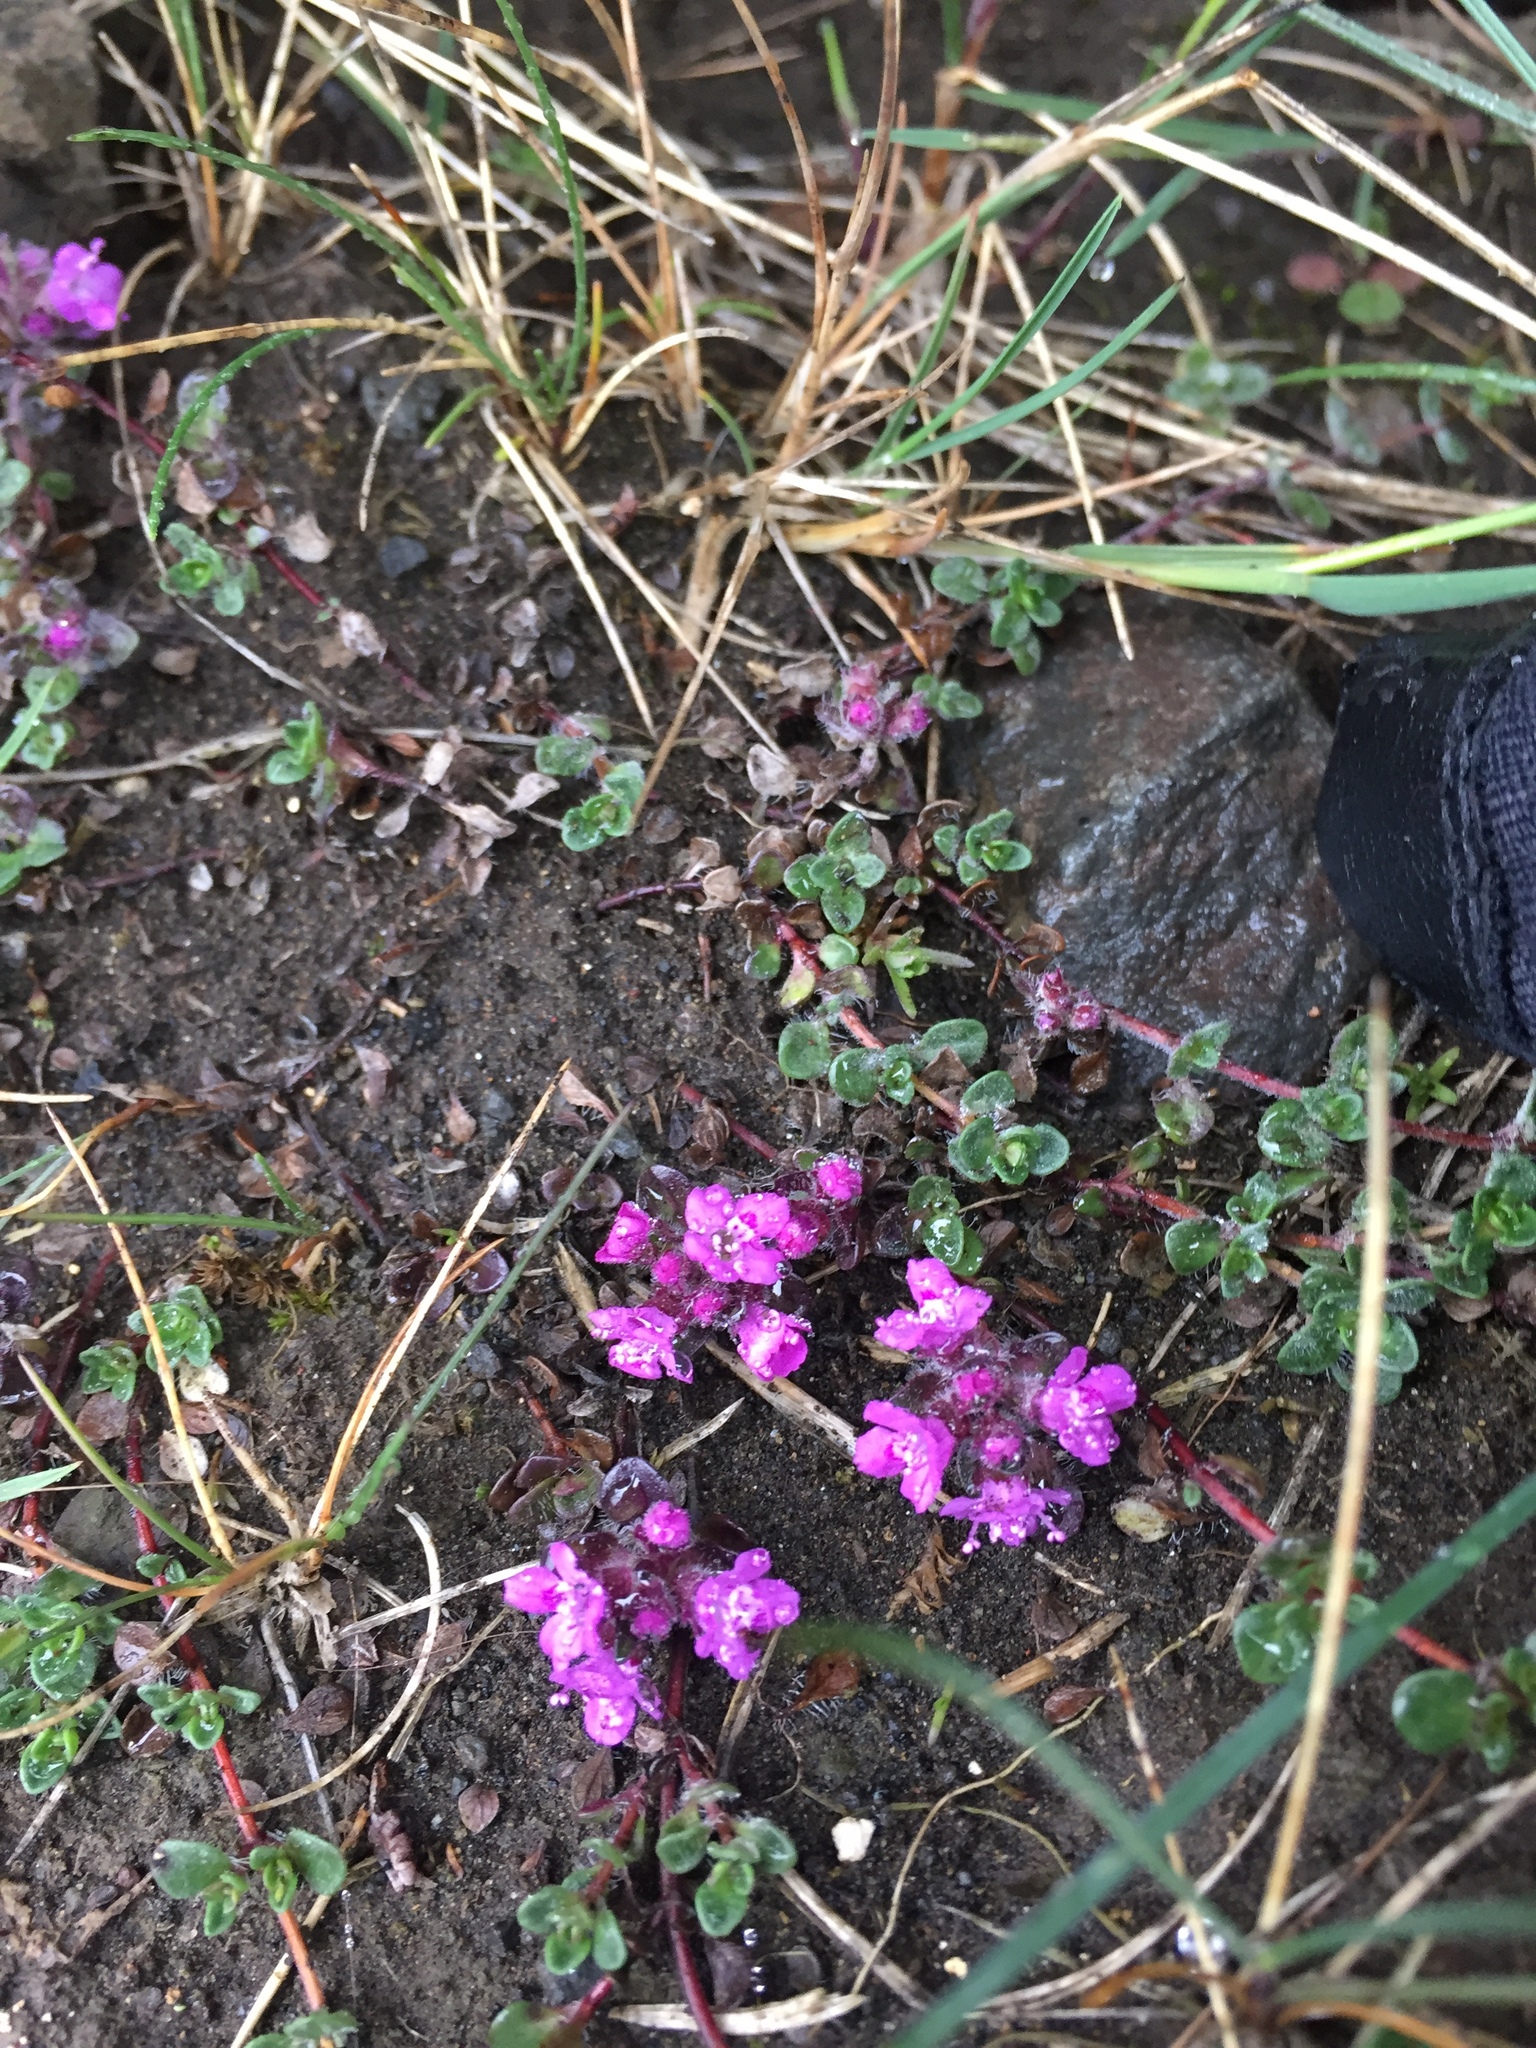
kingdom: Plantae
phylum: Tracheophyta
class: Magnoliopsida
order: Lamiales
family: Lamiaceae
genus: Thymus
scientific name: Thymus praecox
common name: Wild thyme
